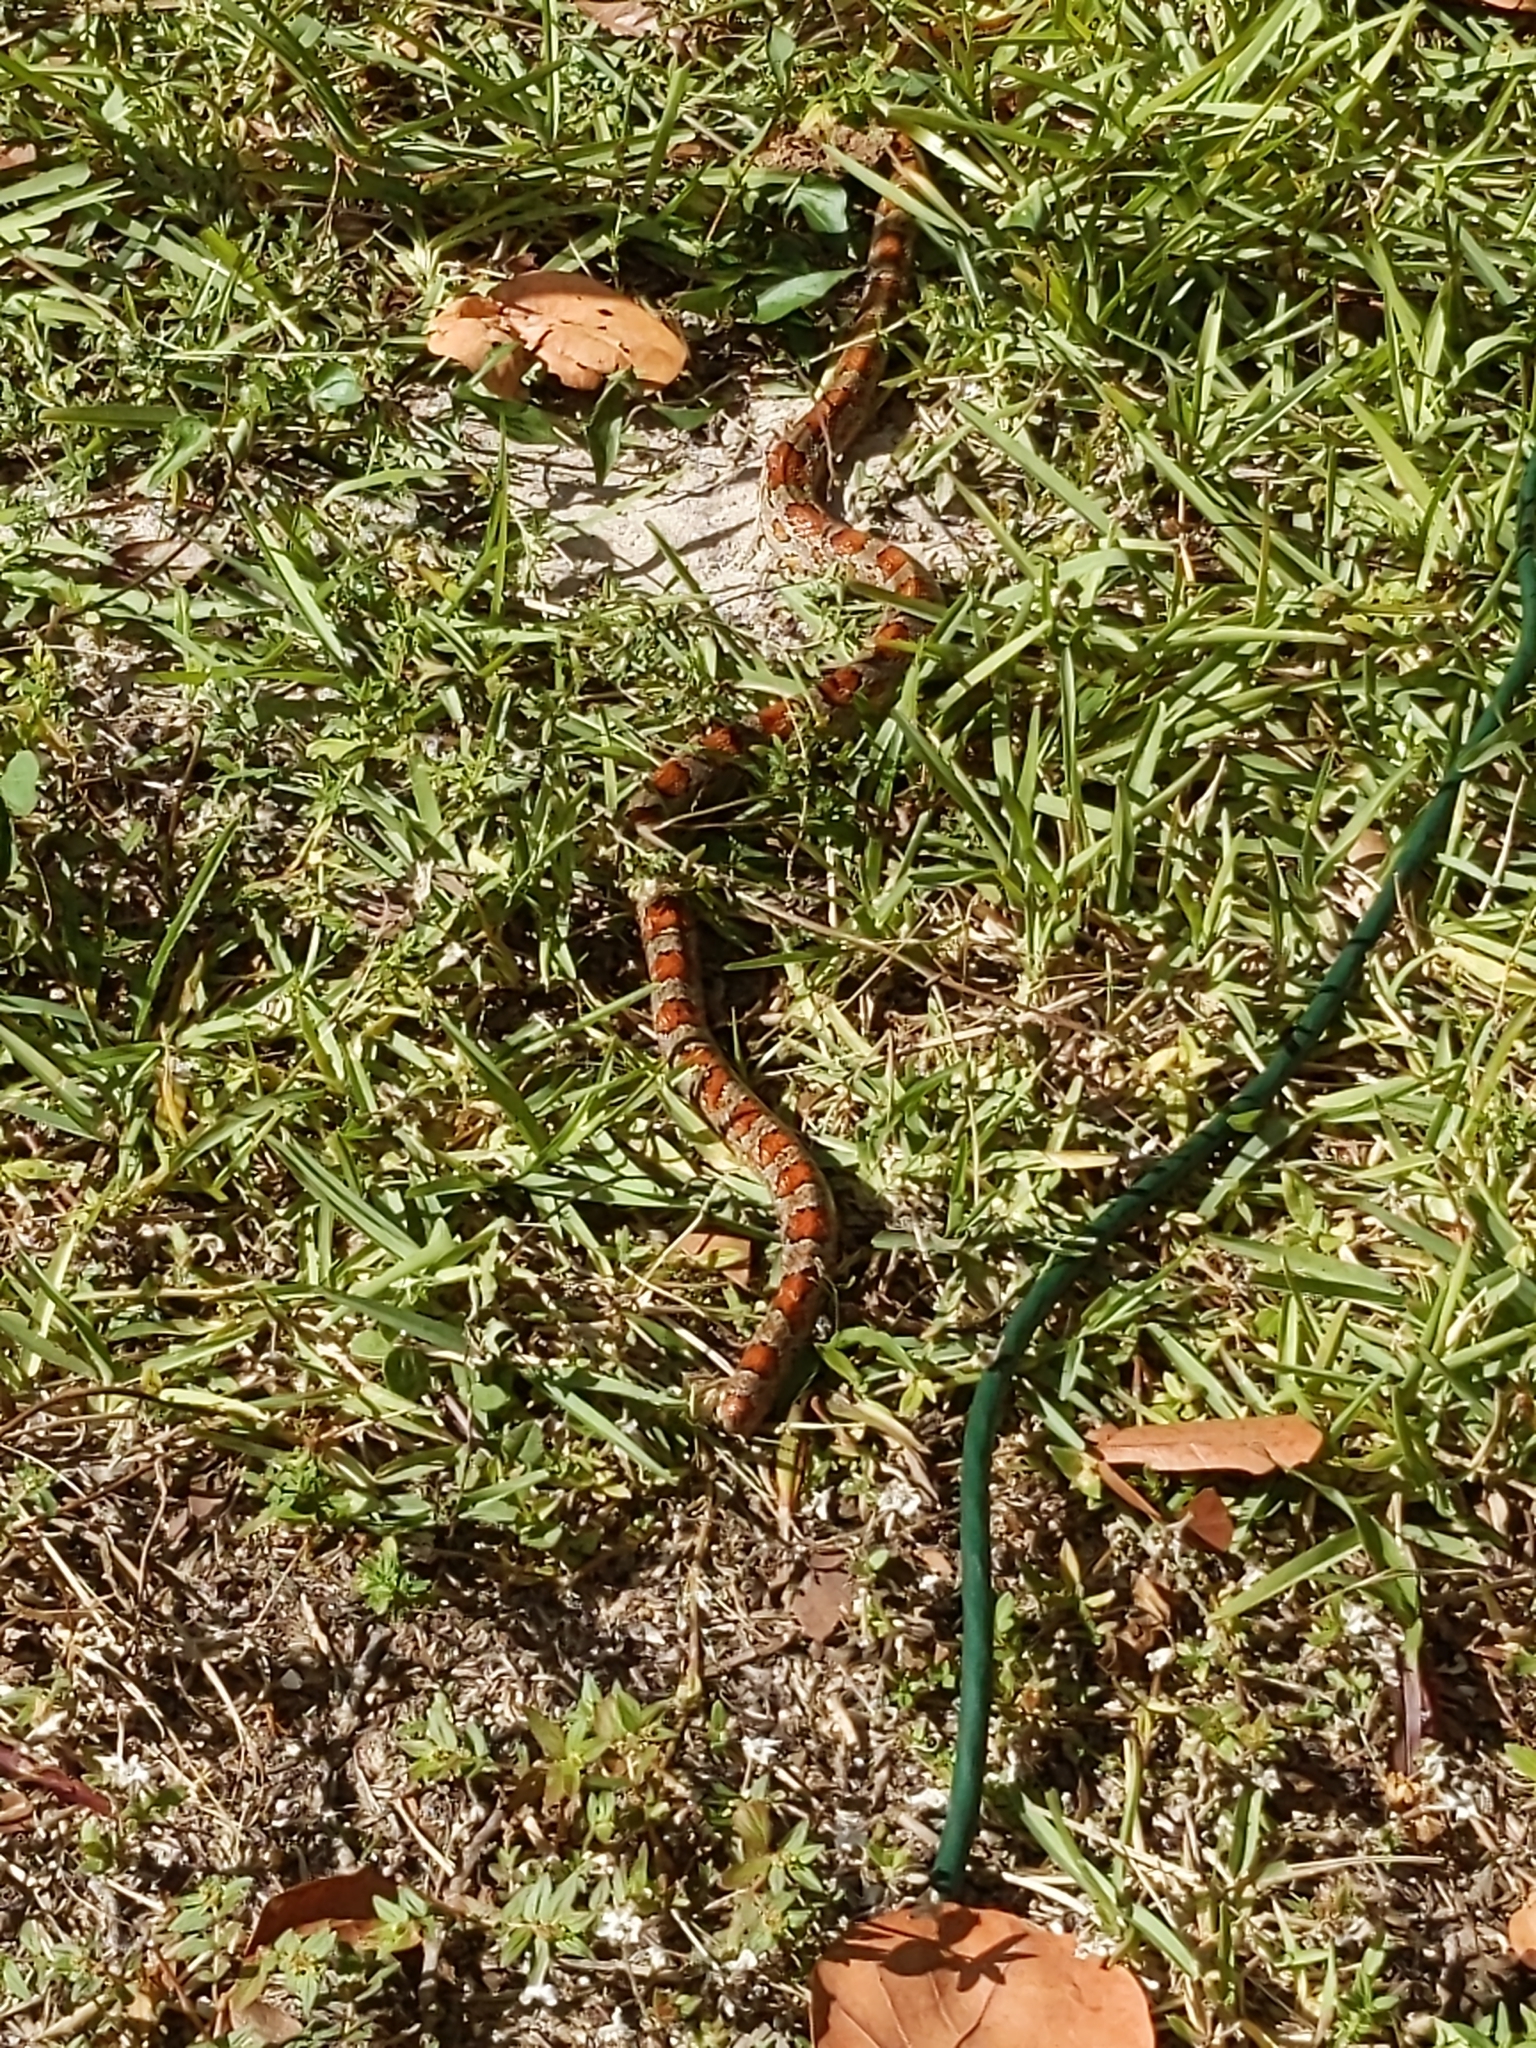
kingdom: Animalia
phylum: Chordata
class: Squamata
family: Colubridae
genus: Pantherophis
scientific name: Pantherophis guttatus
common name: Red cornsnake
